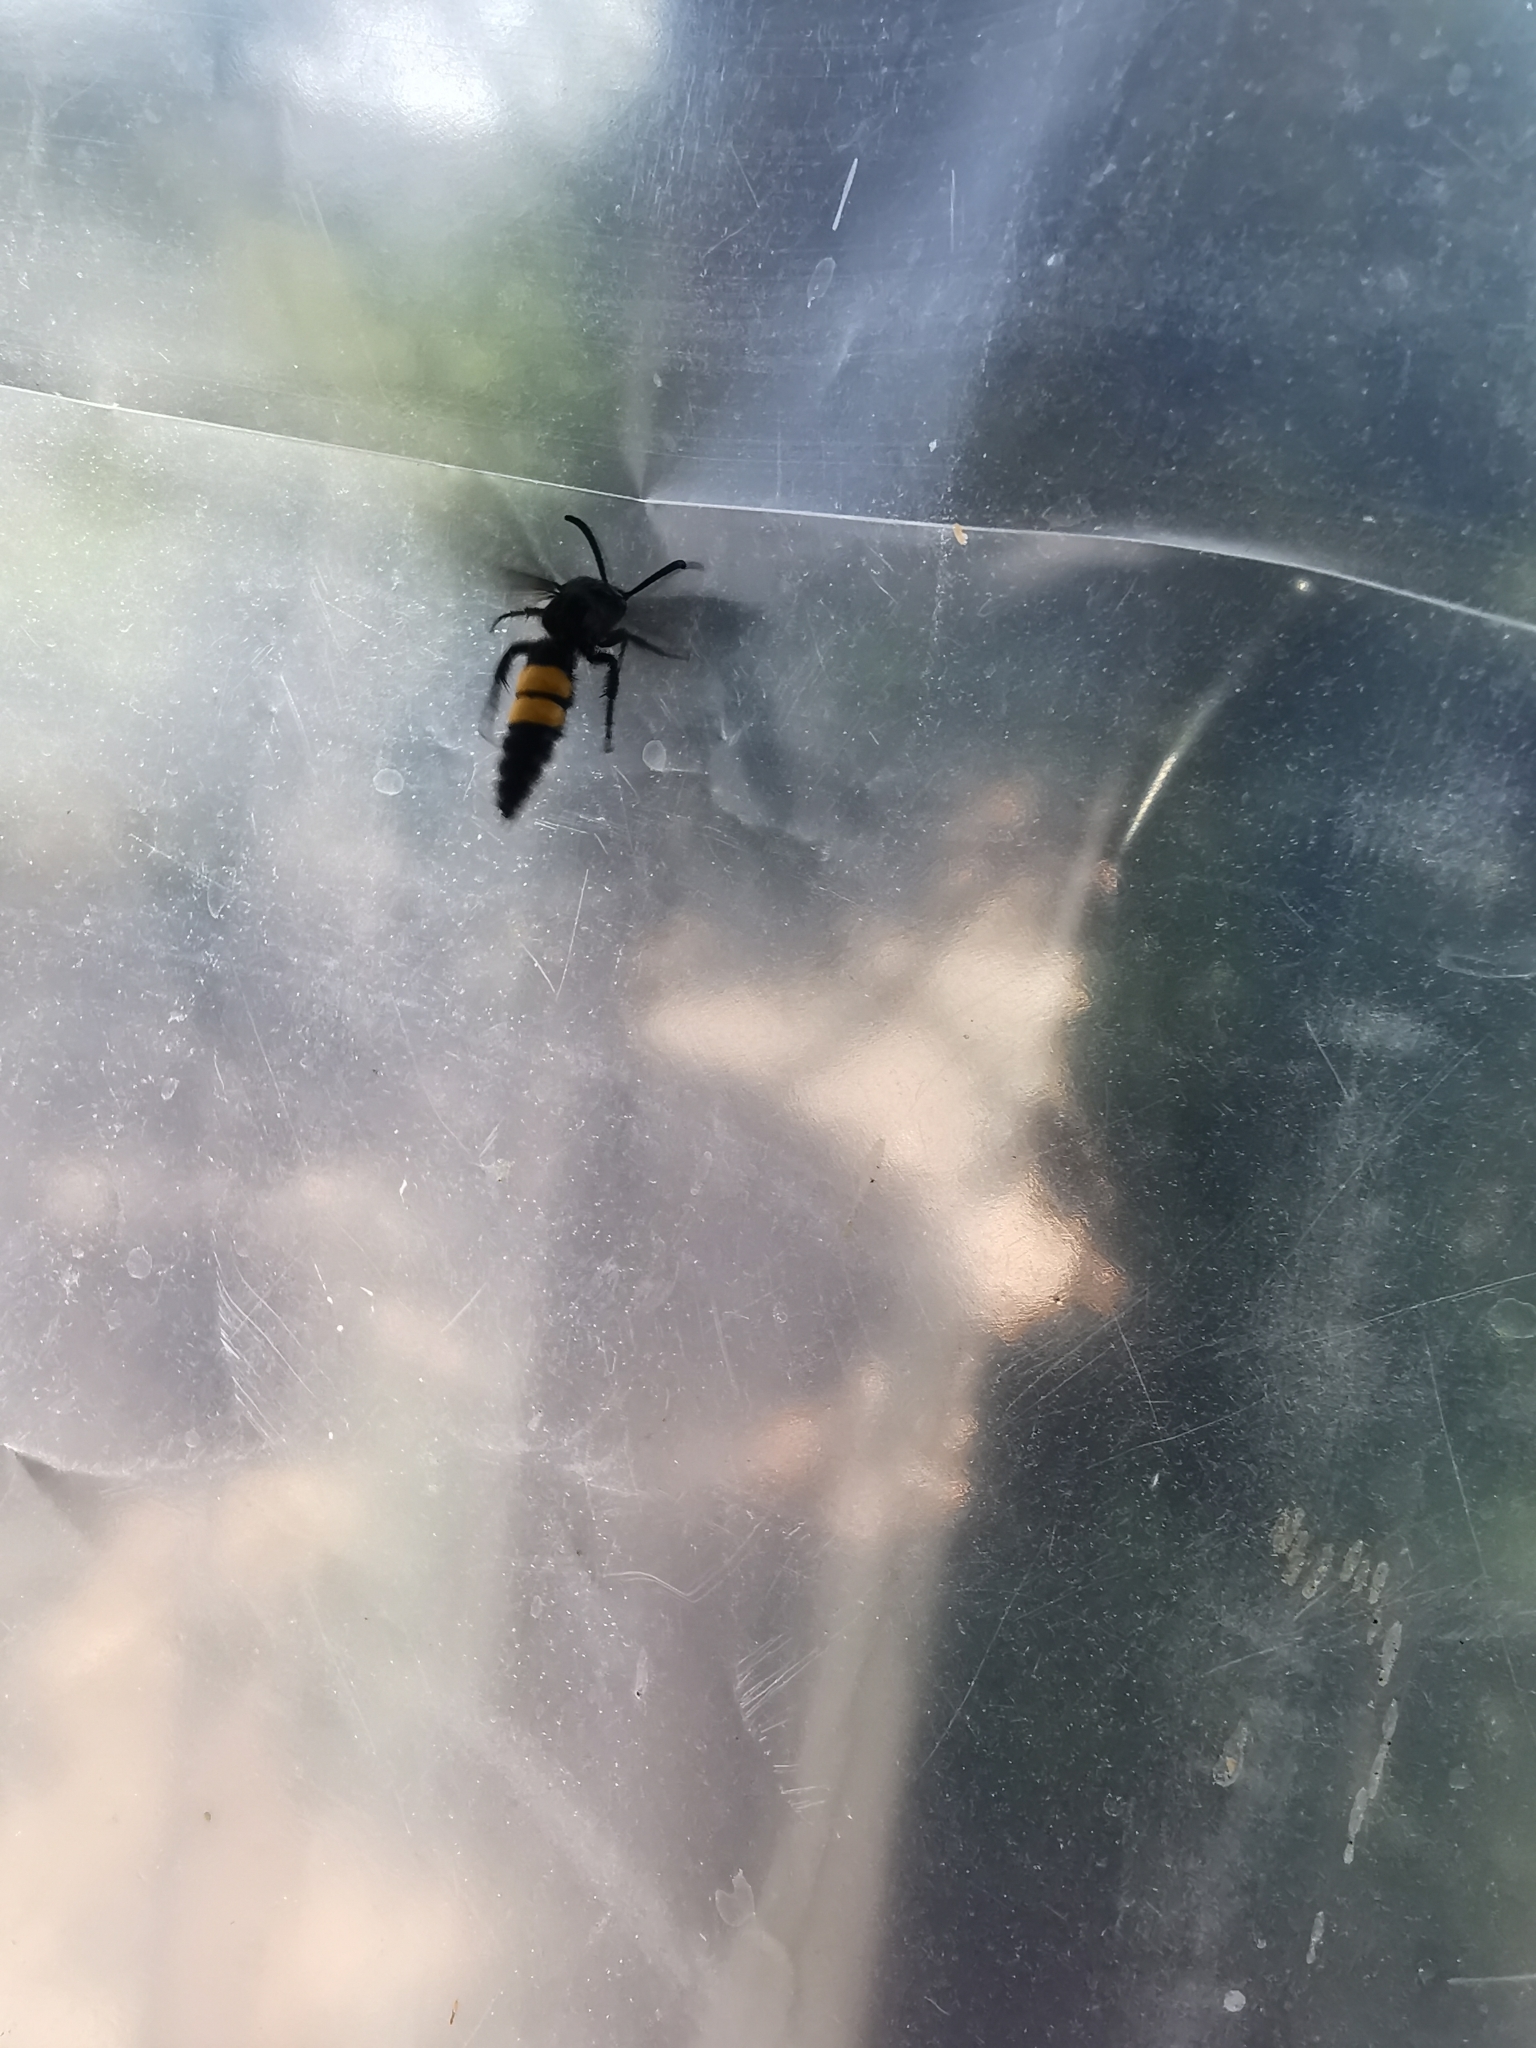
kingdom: Animalia
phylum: Arthropoda
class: Insecta
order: Hymenoptera
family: Scoliidae
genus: Scolia
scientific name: Scolia hirta
